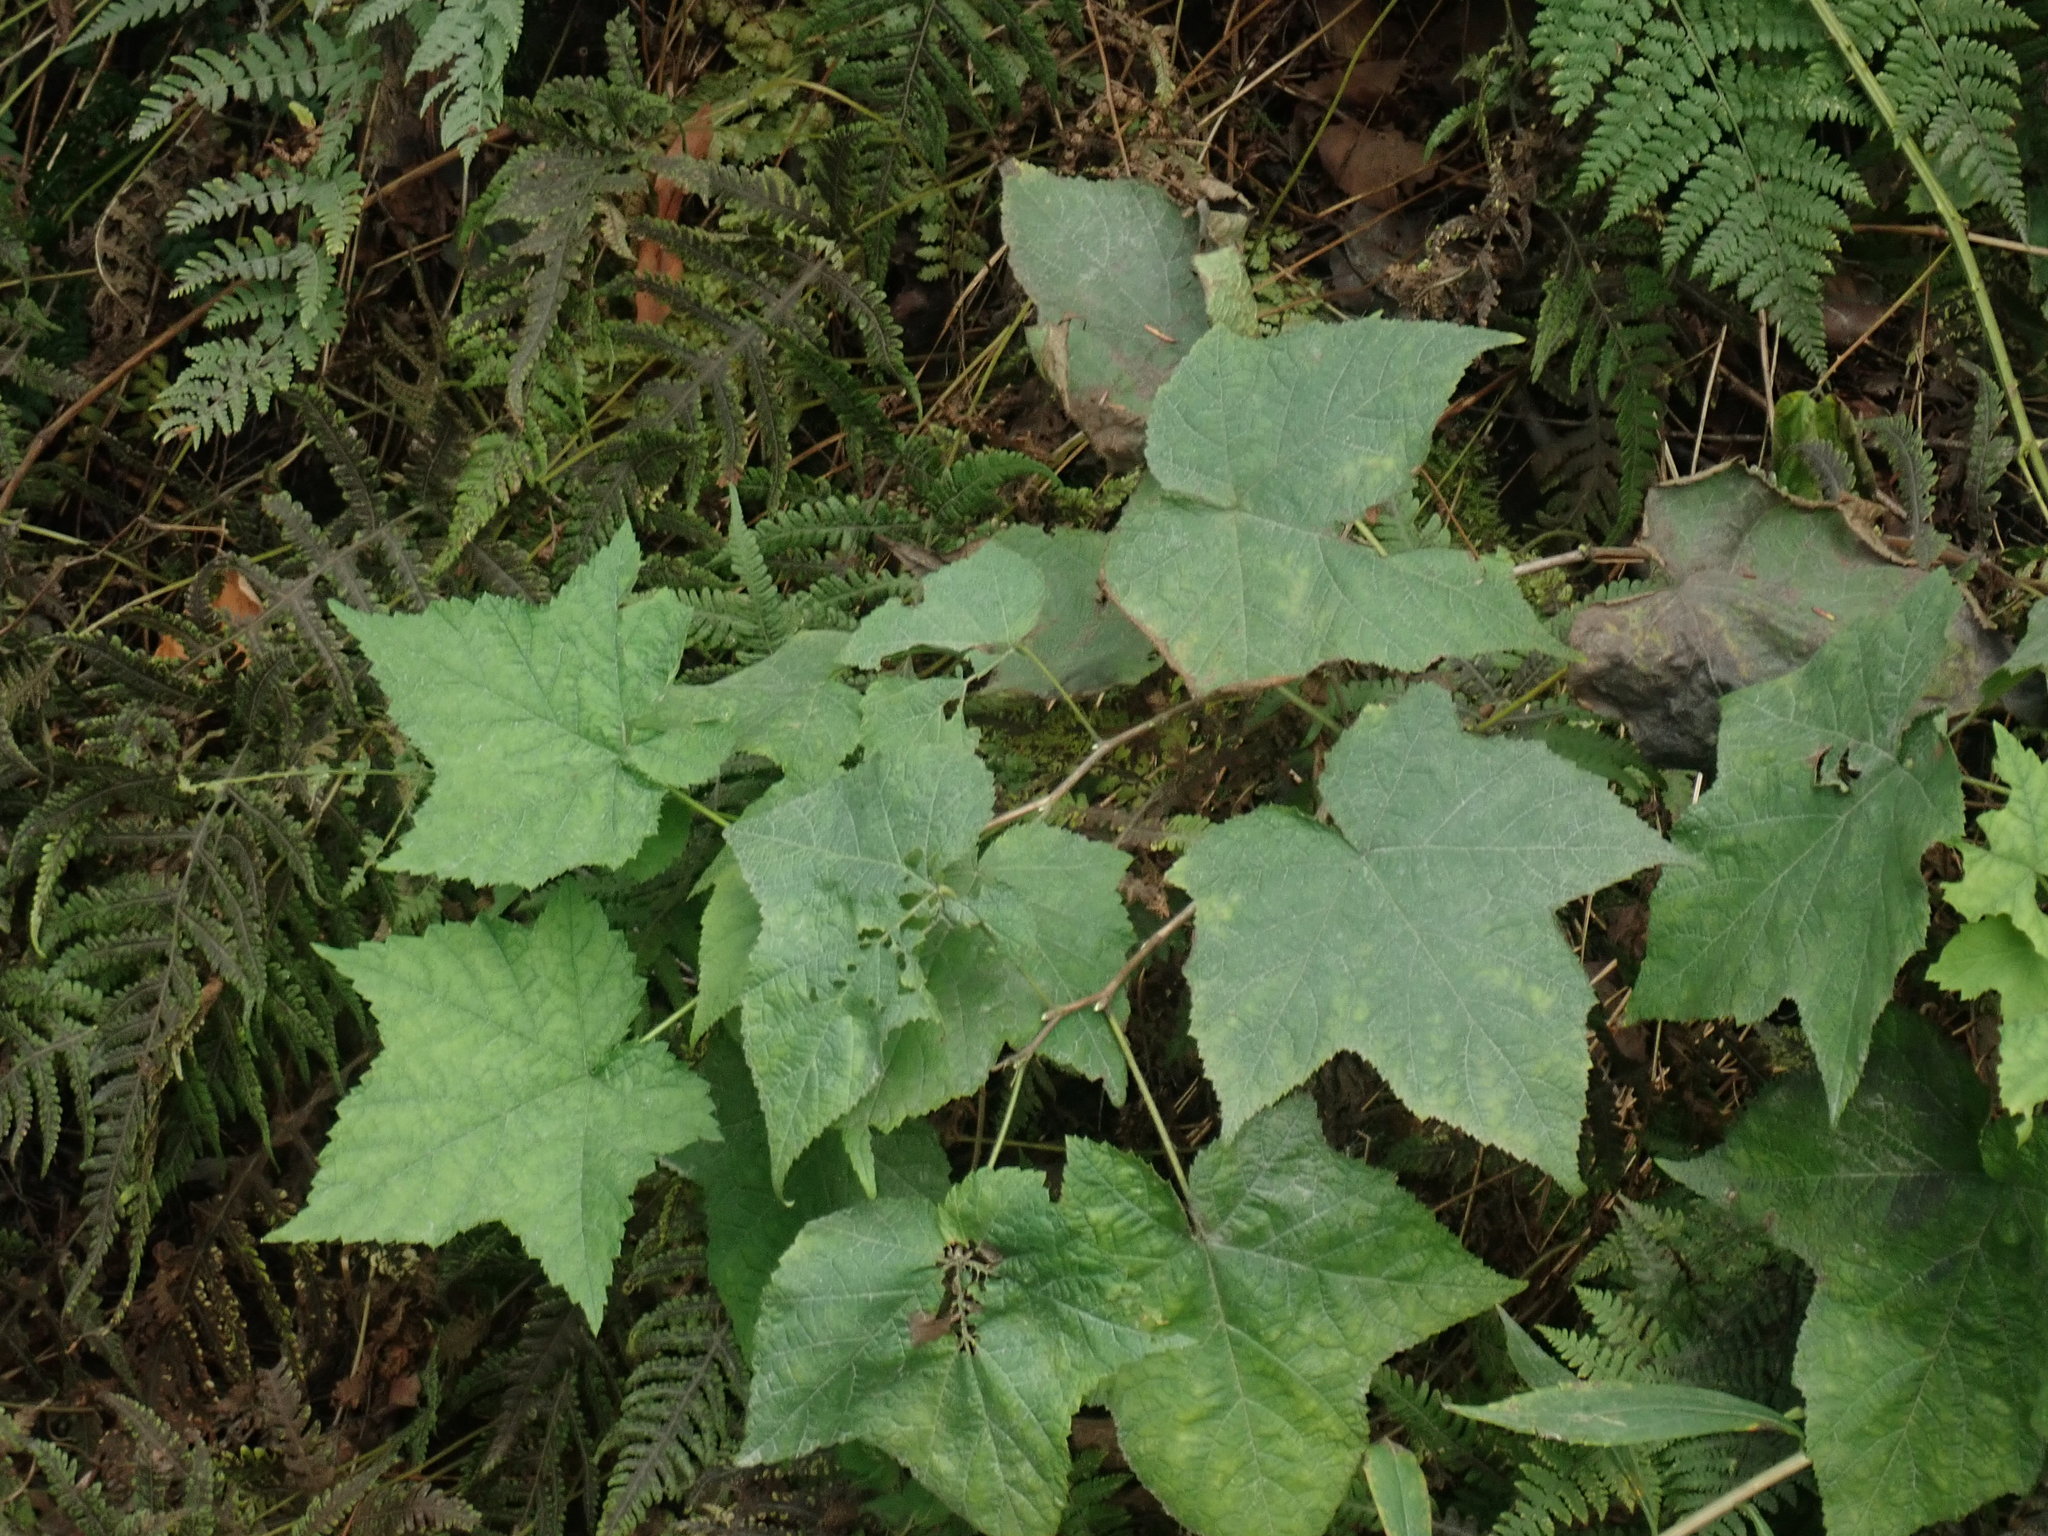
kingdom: Plantae
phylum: Tracheophyta
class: Magnoliopsida
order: Rosales
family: Rosaceae
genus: Rubus
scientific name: Rubus odoratus
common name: Purple-flowered raspberry
